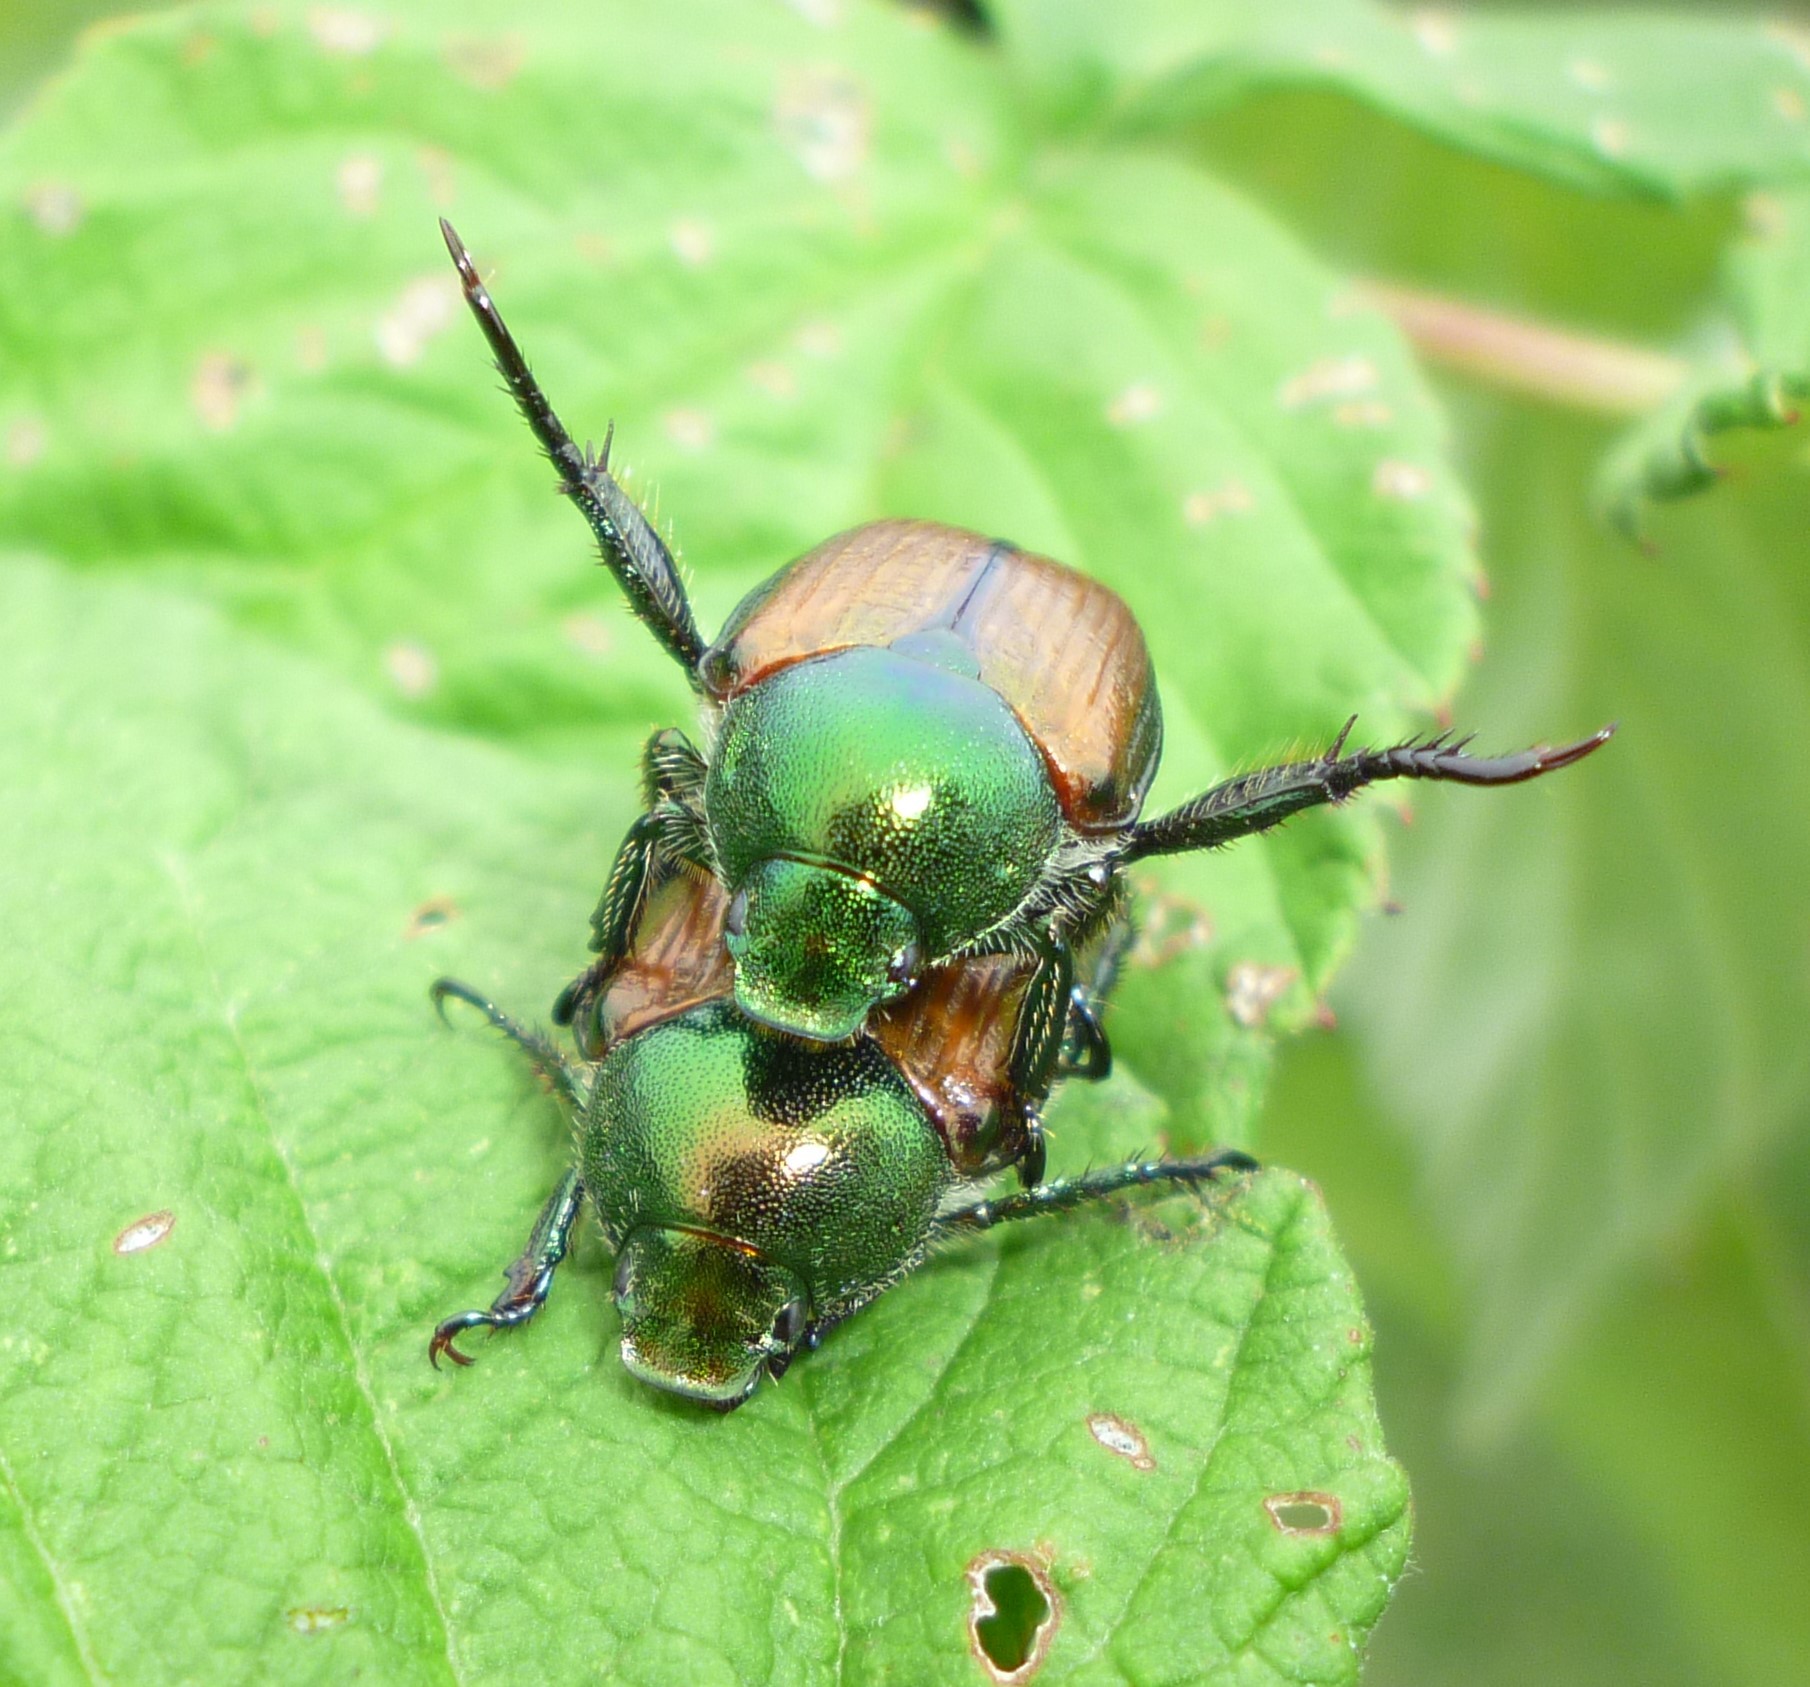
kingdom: Animalia
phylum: Arthropoda
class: Insecta
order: Coleoptera
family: Scarabaeidae
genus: Popillia
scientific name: Popillia japonica
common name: Japanese beetle
